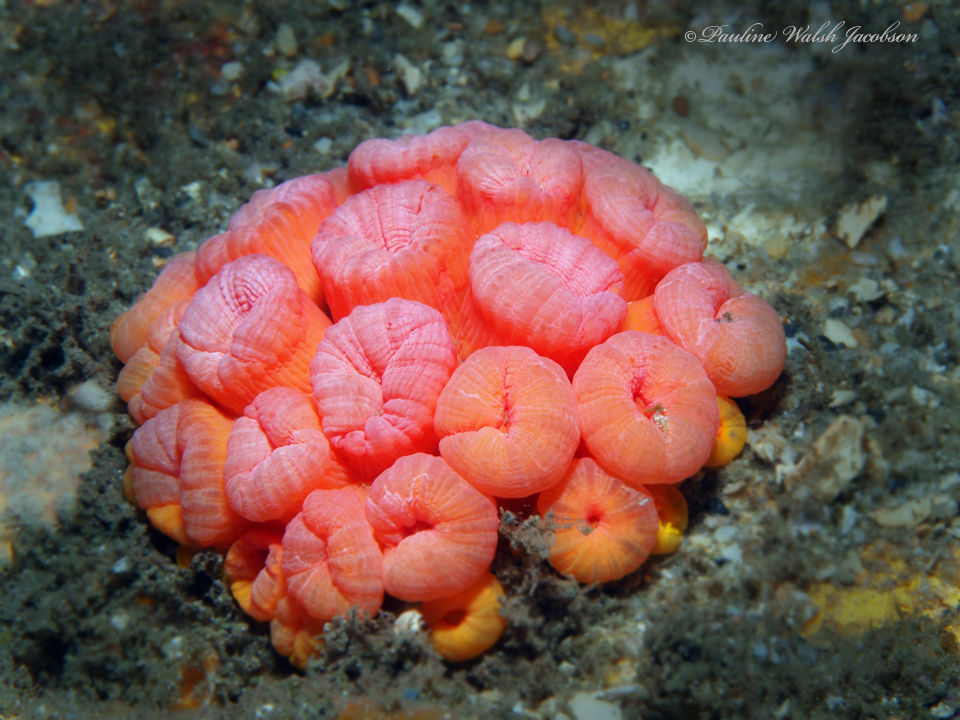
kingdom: Animalia
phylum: Cnidaria
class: Anthozoa
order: Scleractinia
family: Dendrophylliidae
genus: Tubastraea
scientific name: Tubastraea coccinea
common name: Orange cup coral
